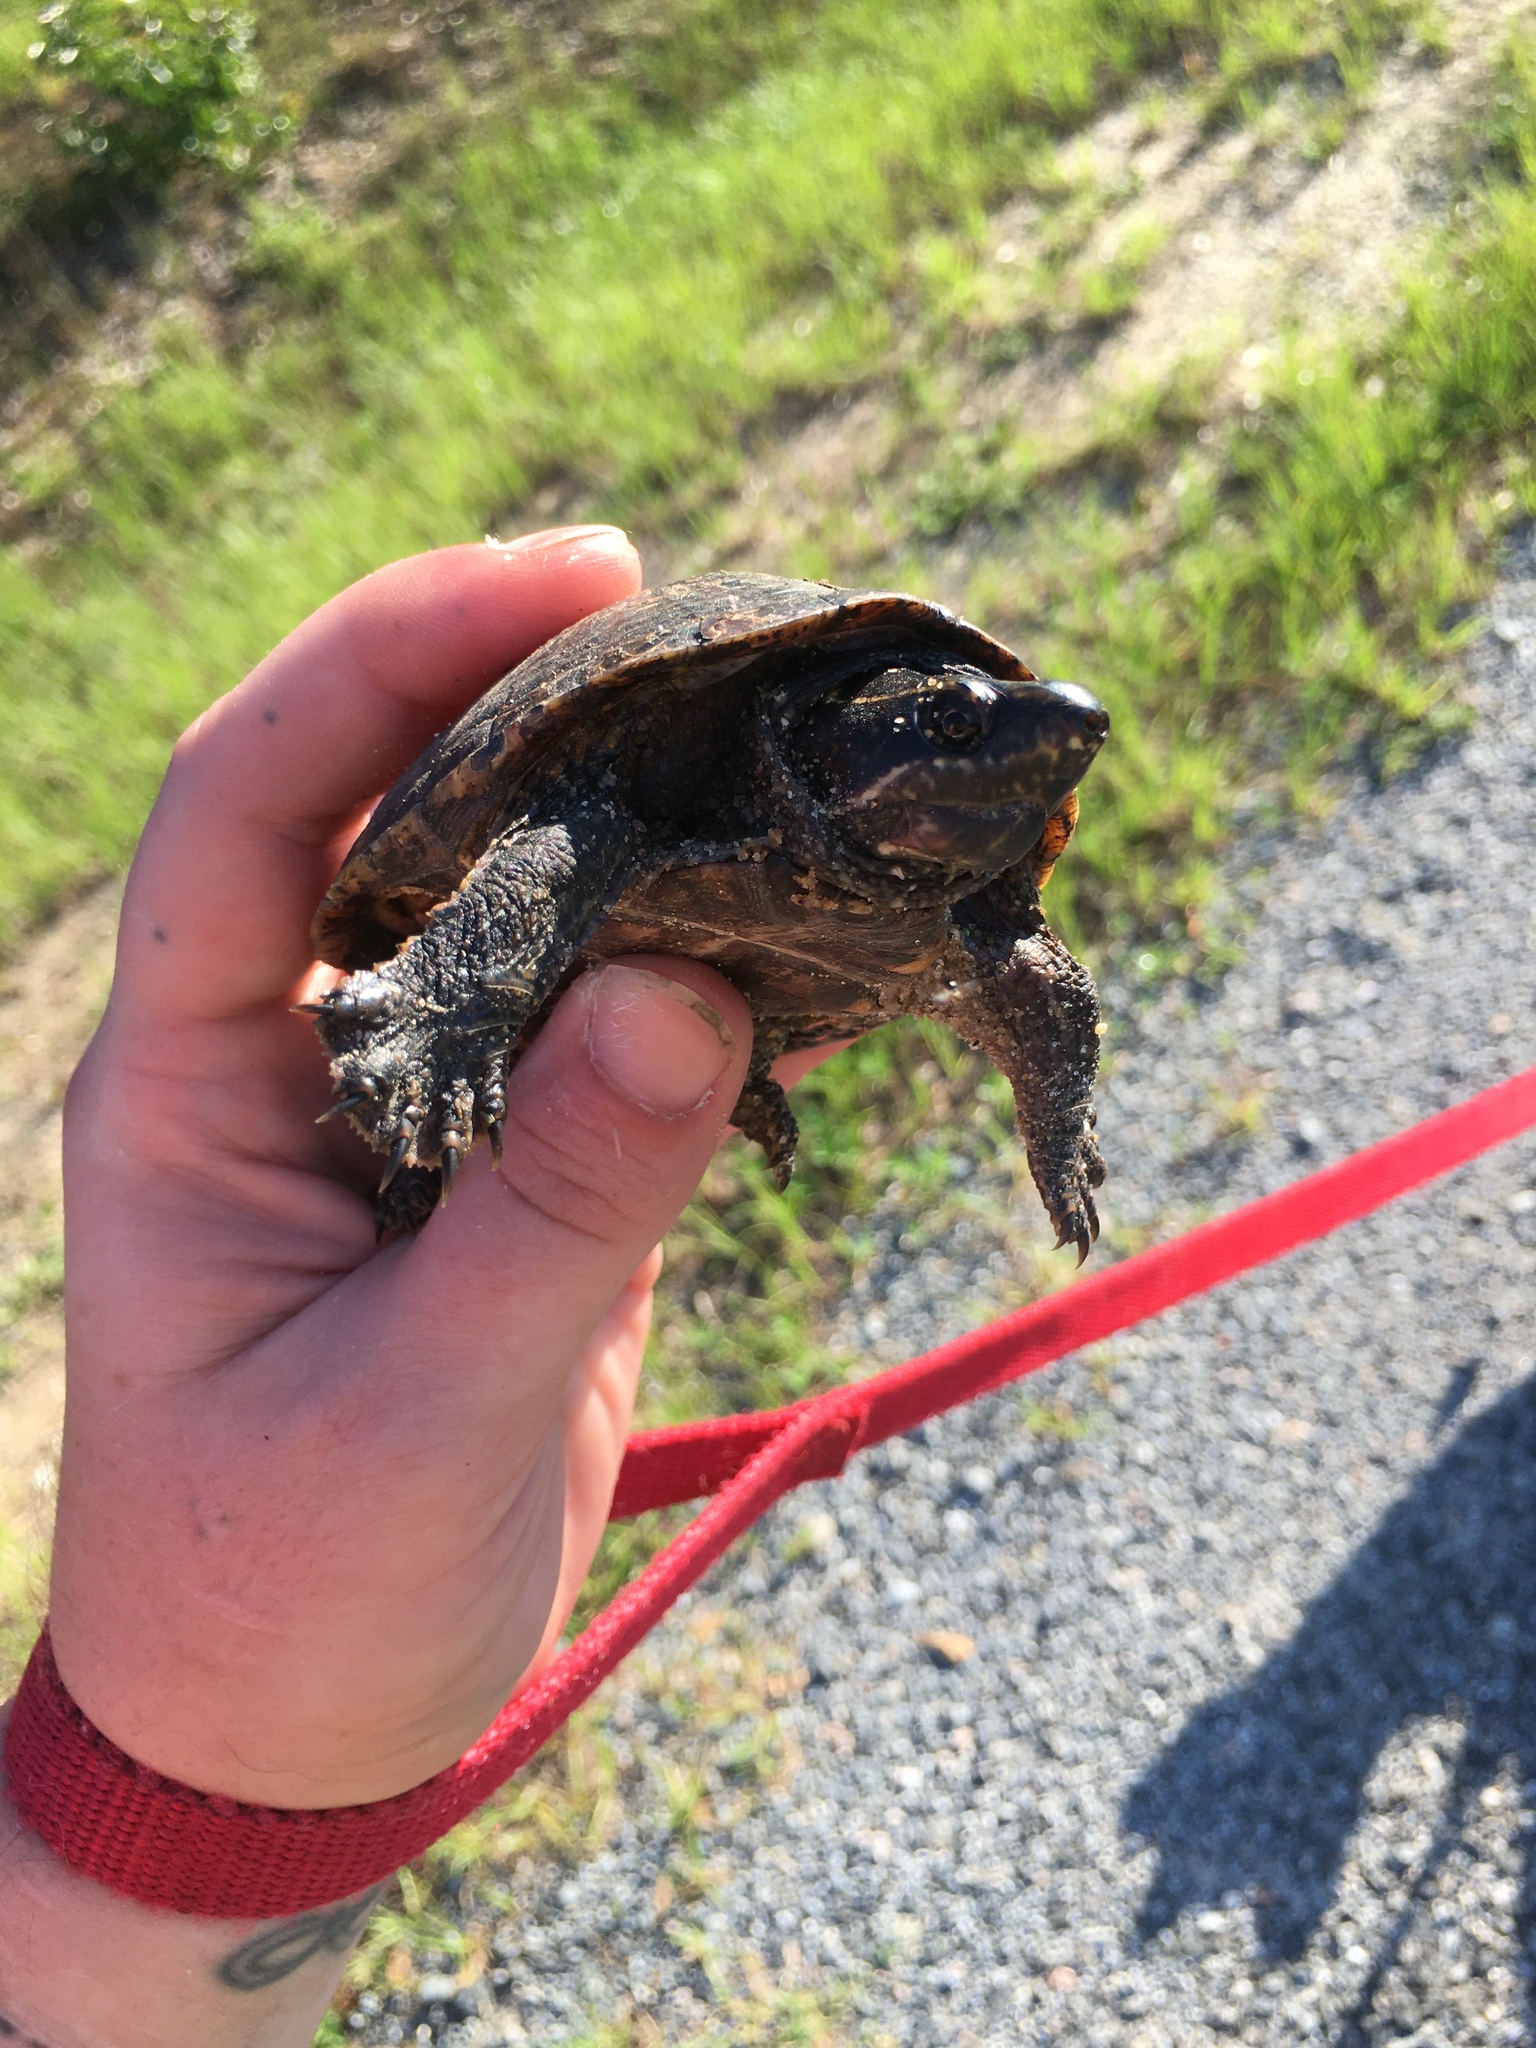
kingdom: Animalia
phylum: Chordata
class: Testudines
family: Kinosternidae
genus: Sternotherus
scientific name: Sternotherus odoratus
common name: Common musk turtle
